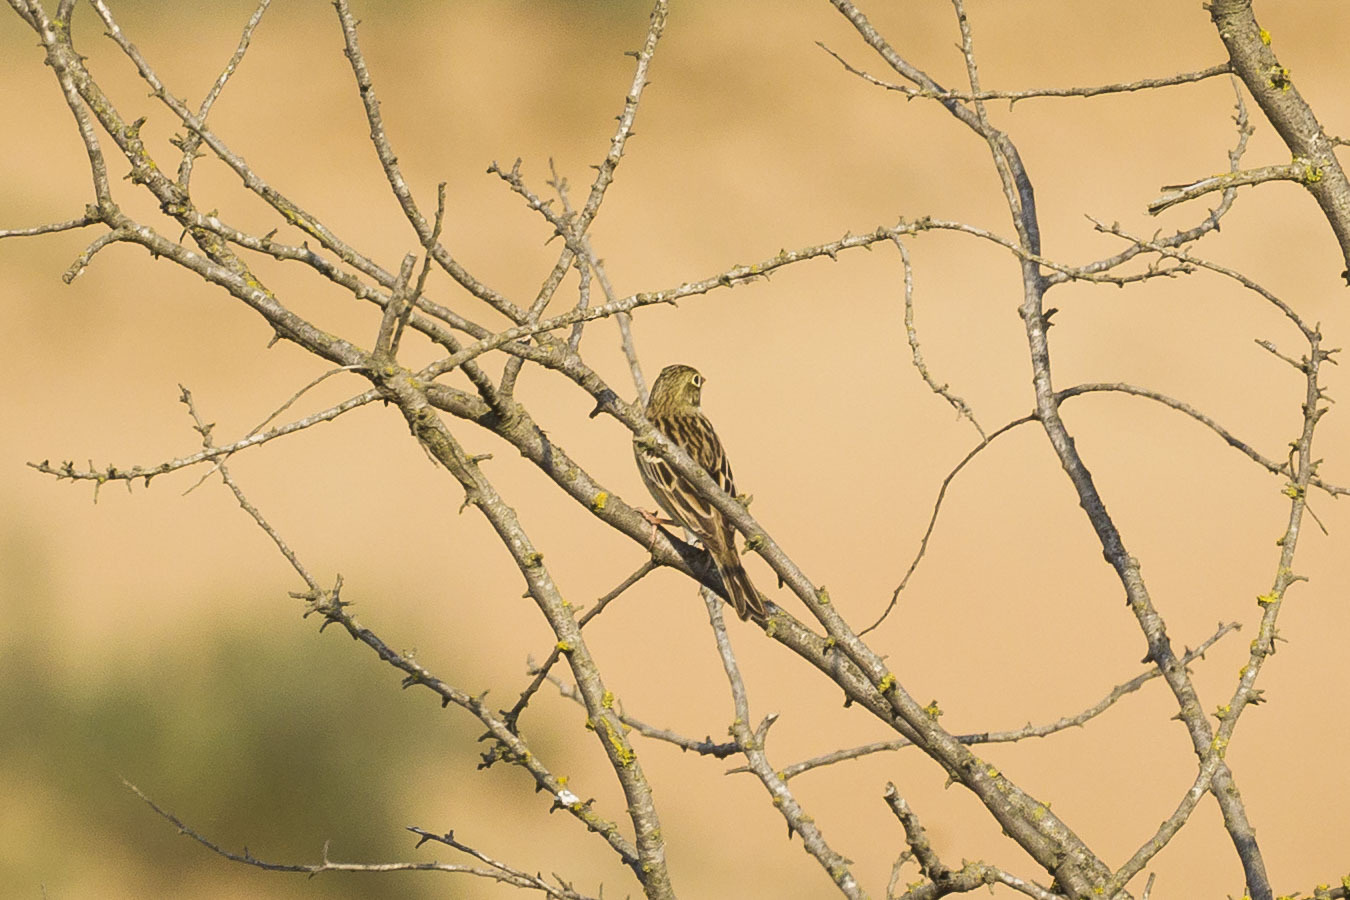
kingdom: Animalia
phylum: Chordata
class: Aves
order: Passeriformes
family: Emberizidae
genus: Emberiza
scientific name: Emberiza hortulana
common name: Ortolan bunting
